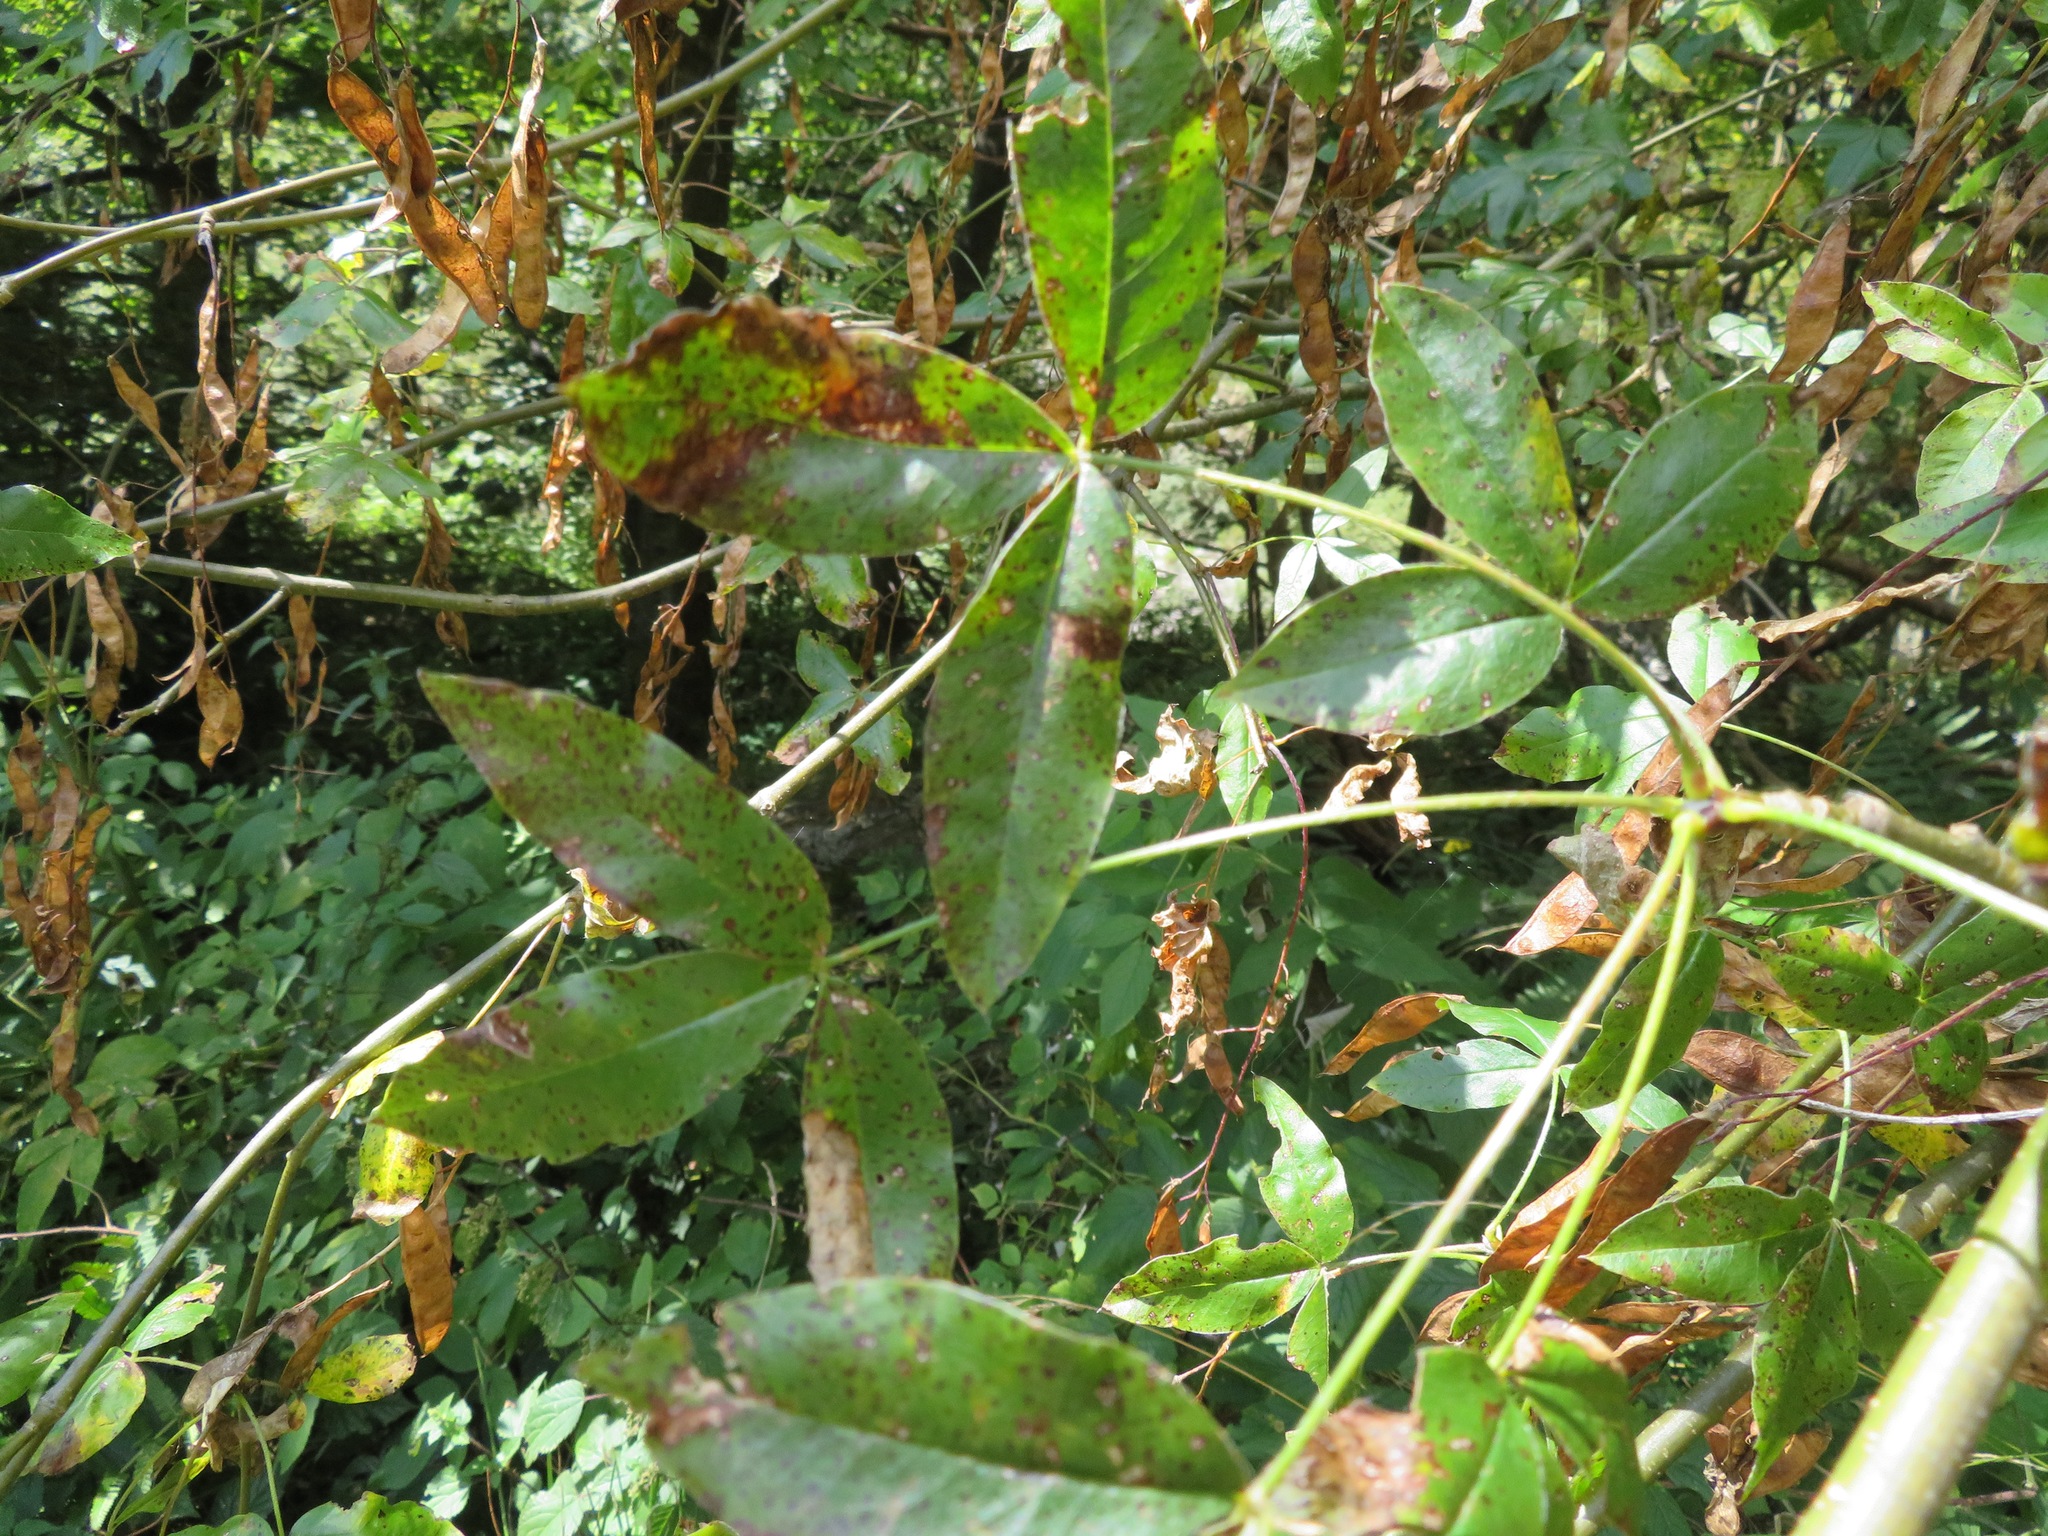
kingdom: Plantae
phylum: Tracheophyta
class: Magnoliopsida
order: Fabales
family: Fabaceae
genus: Laburnum
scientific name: Laburnum alpinum
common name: Scottish laburnum
